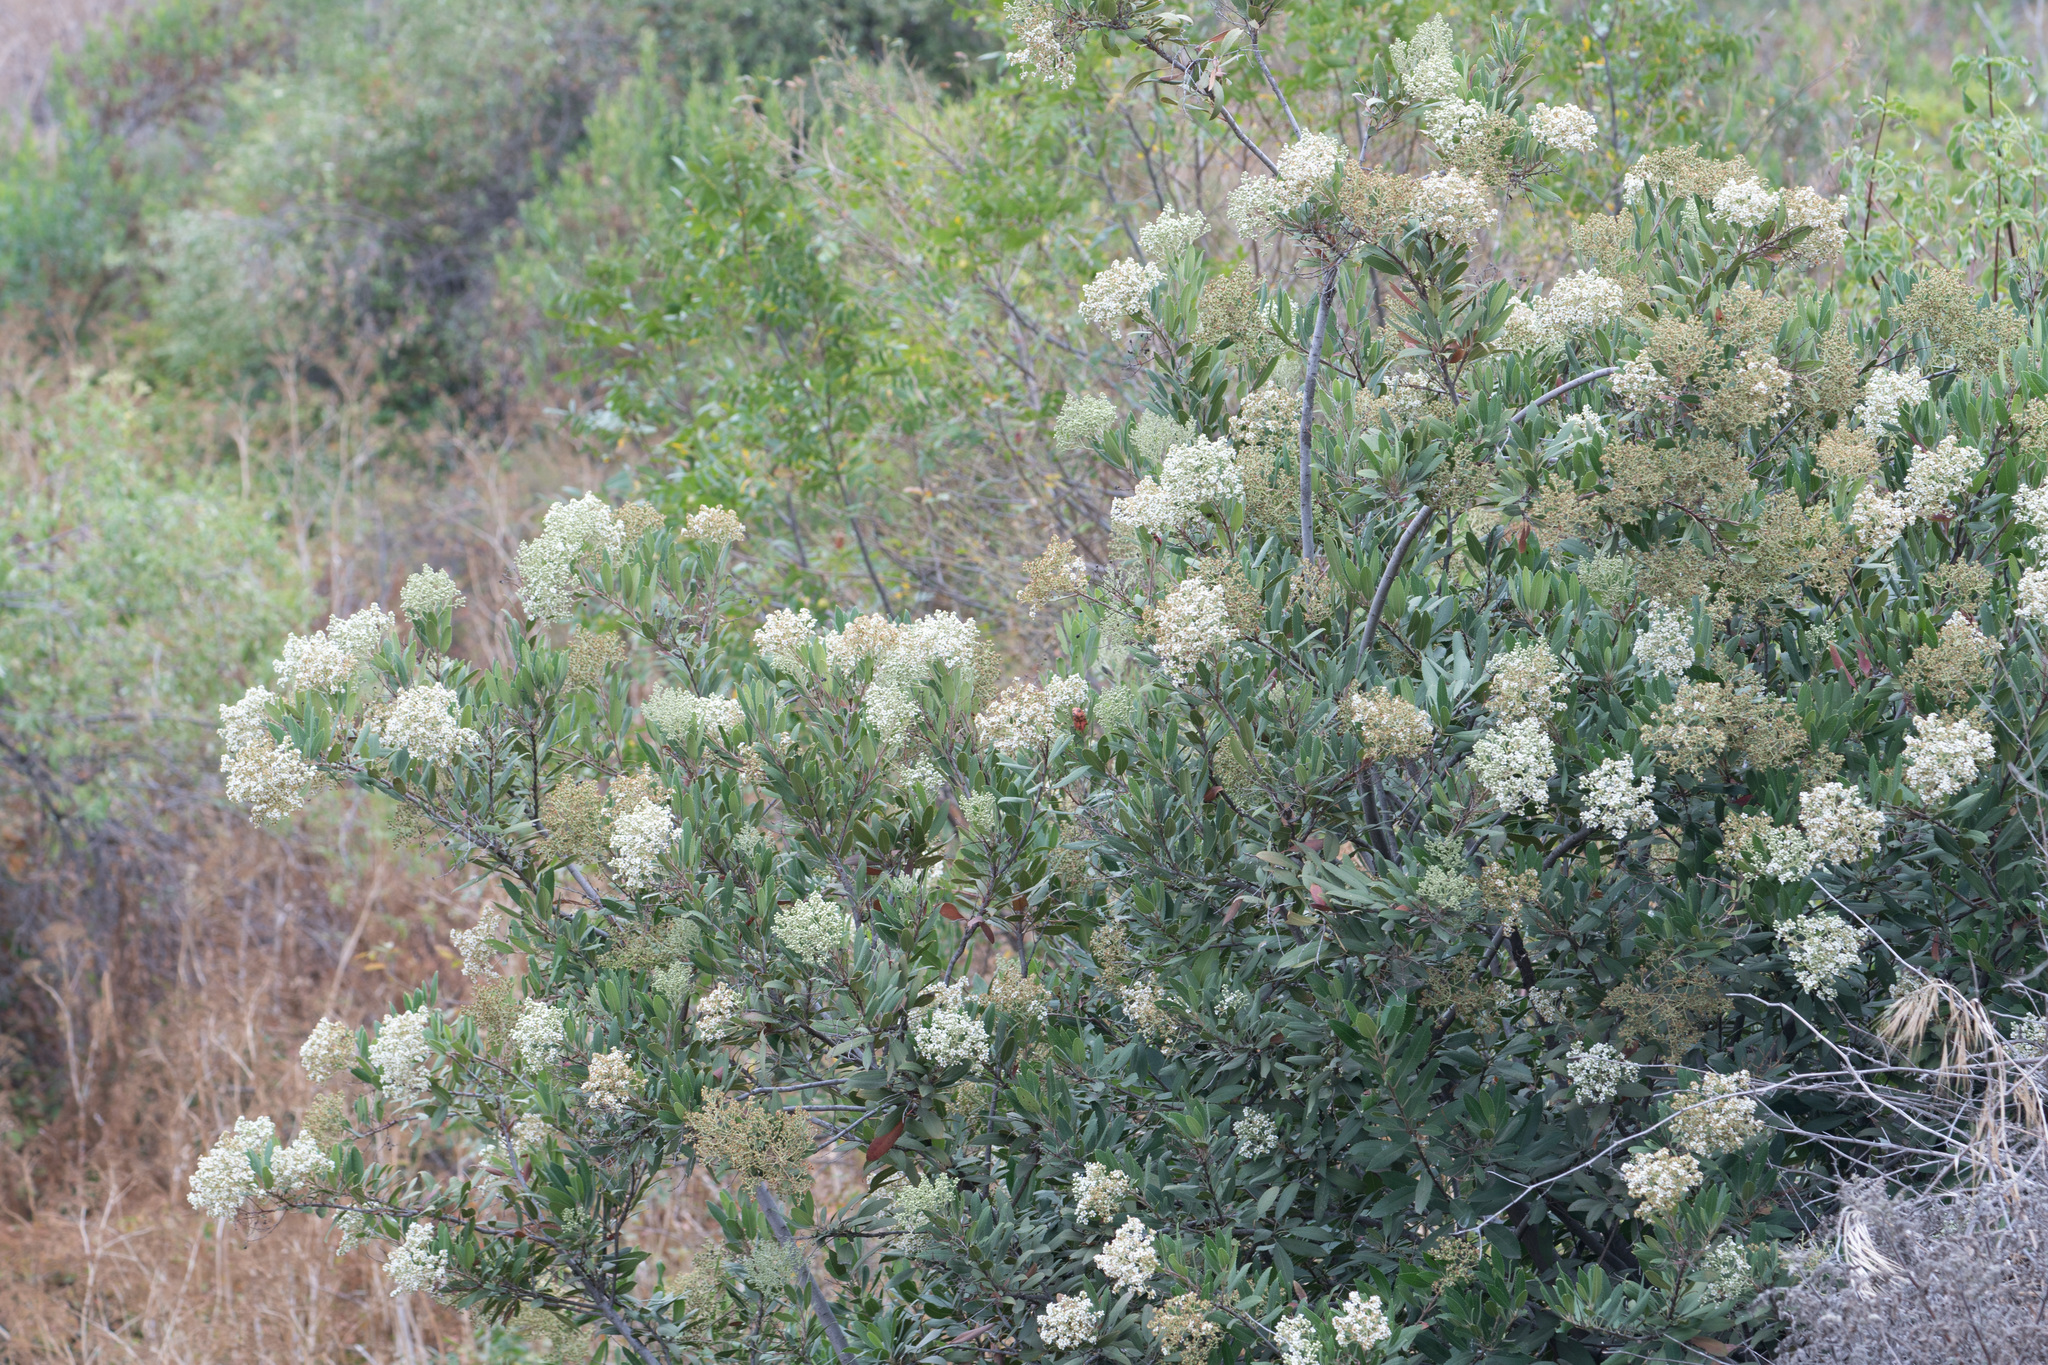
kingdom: Plantae
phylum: Tracheophyta
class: Magnoliopsida
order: Rosales
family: Rosaceae
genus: Heteromeles
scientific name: Heteromeles arbutifolia
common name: California-holly
